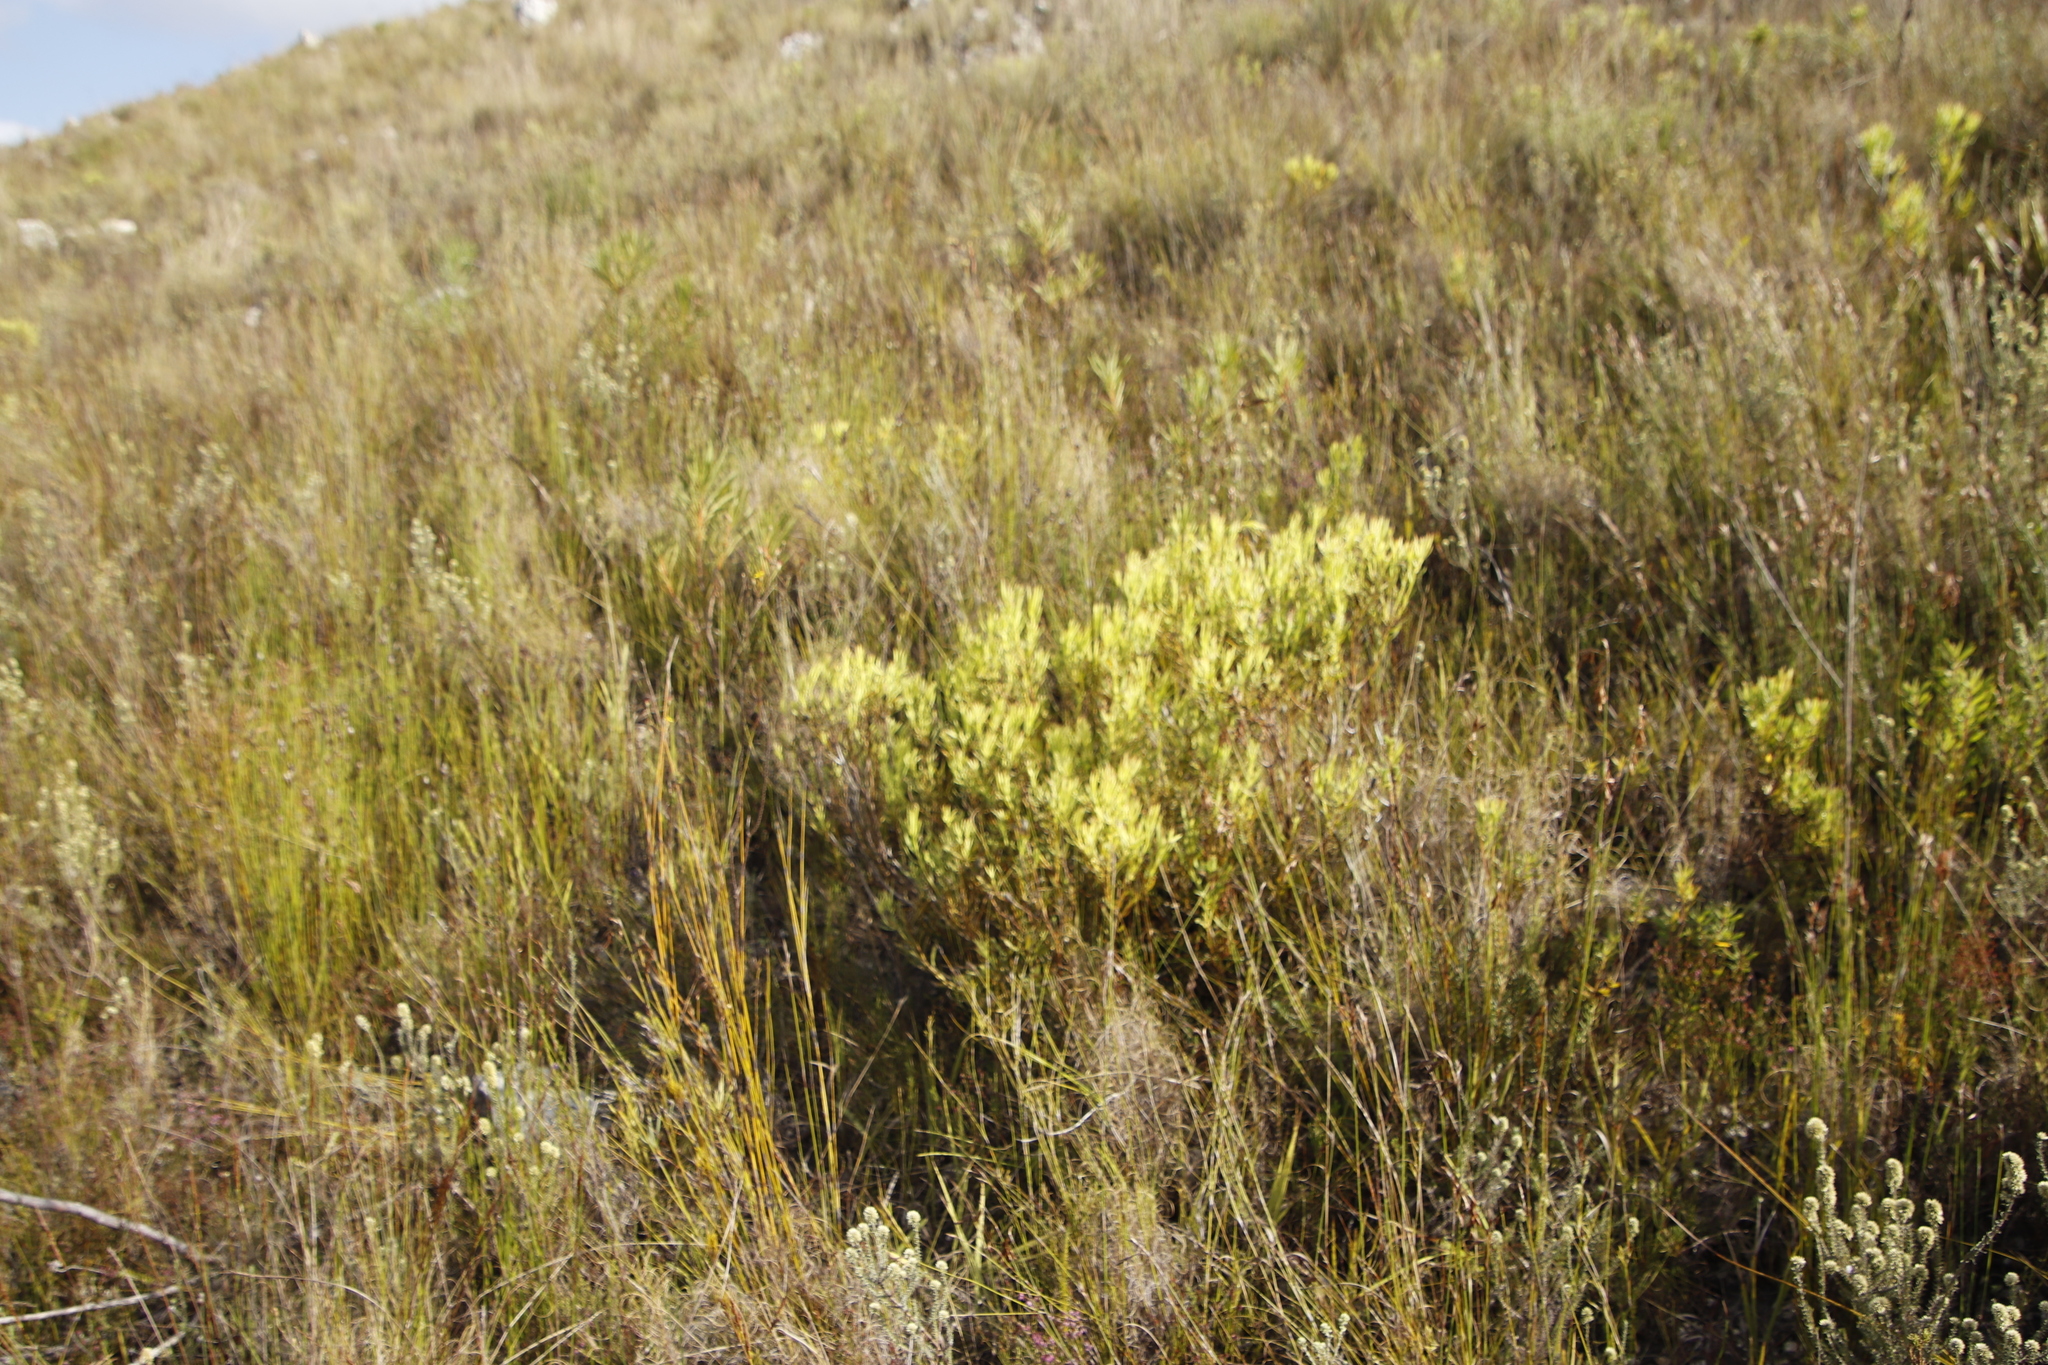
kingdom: Plantae
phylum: Tracheophyta
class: Magnoliopsida
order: Proteales
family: Proteaceae
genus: Leucadendron
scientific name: Leucadendron spissifolium
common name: Spear-leaf conebush
